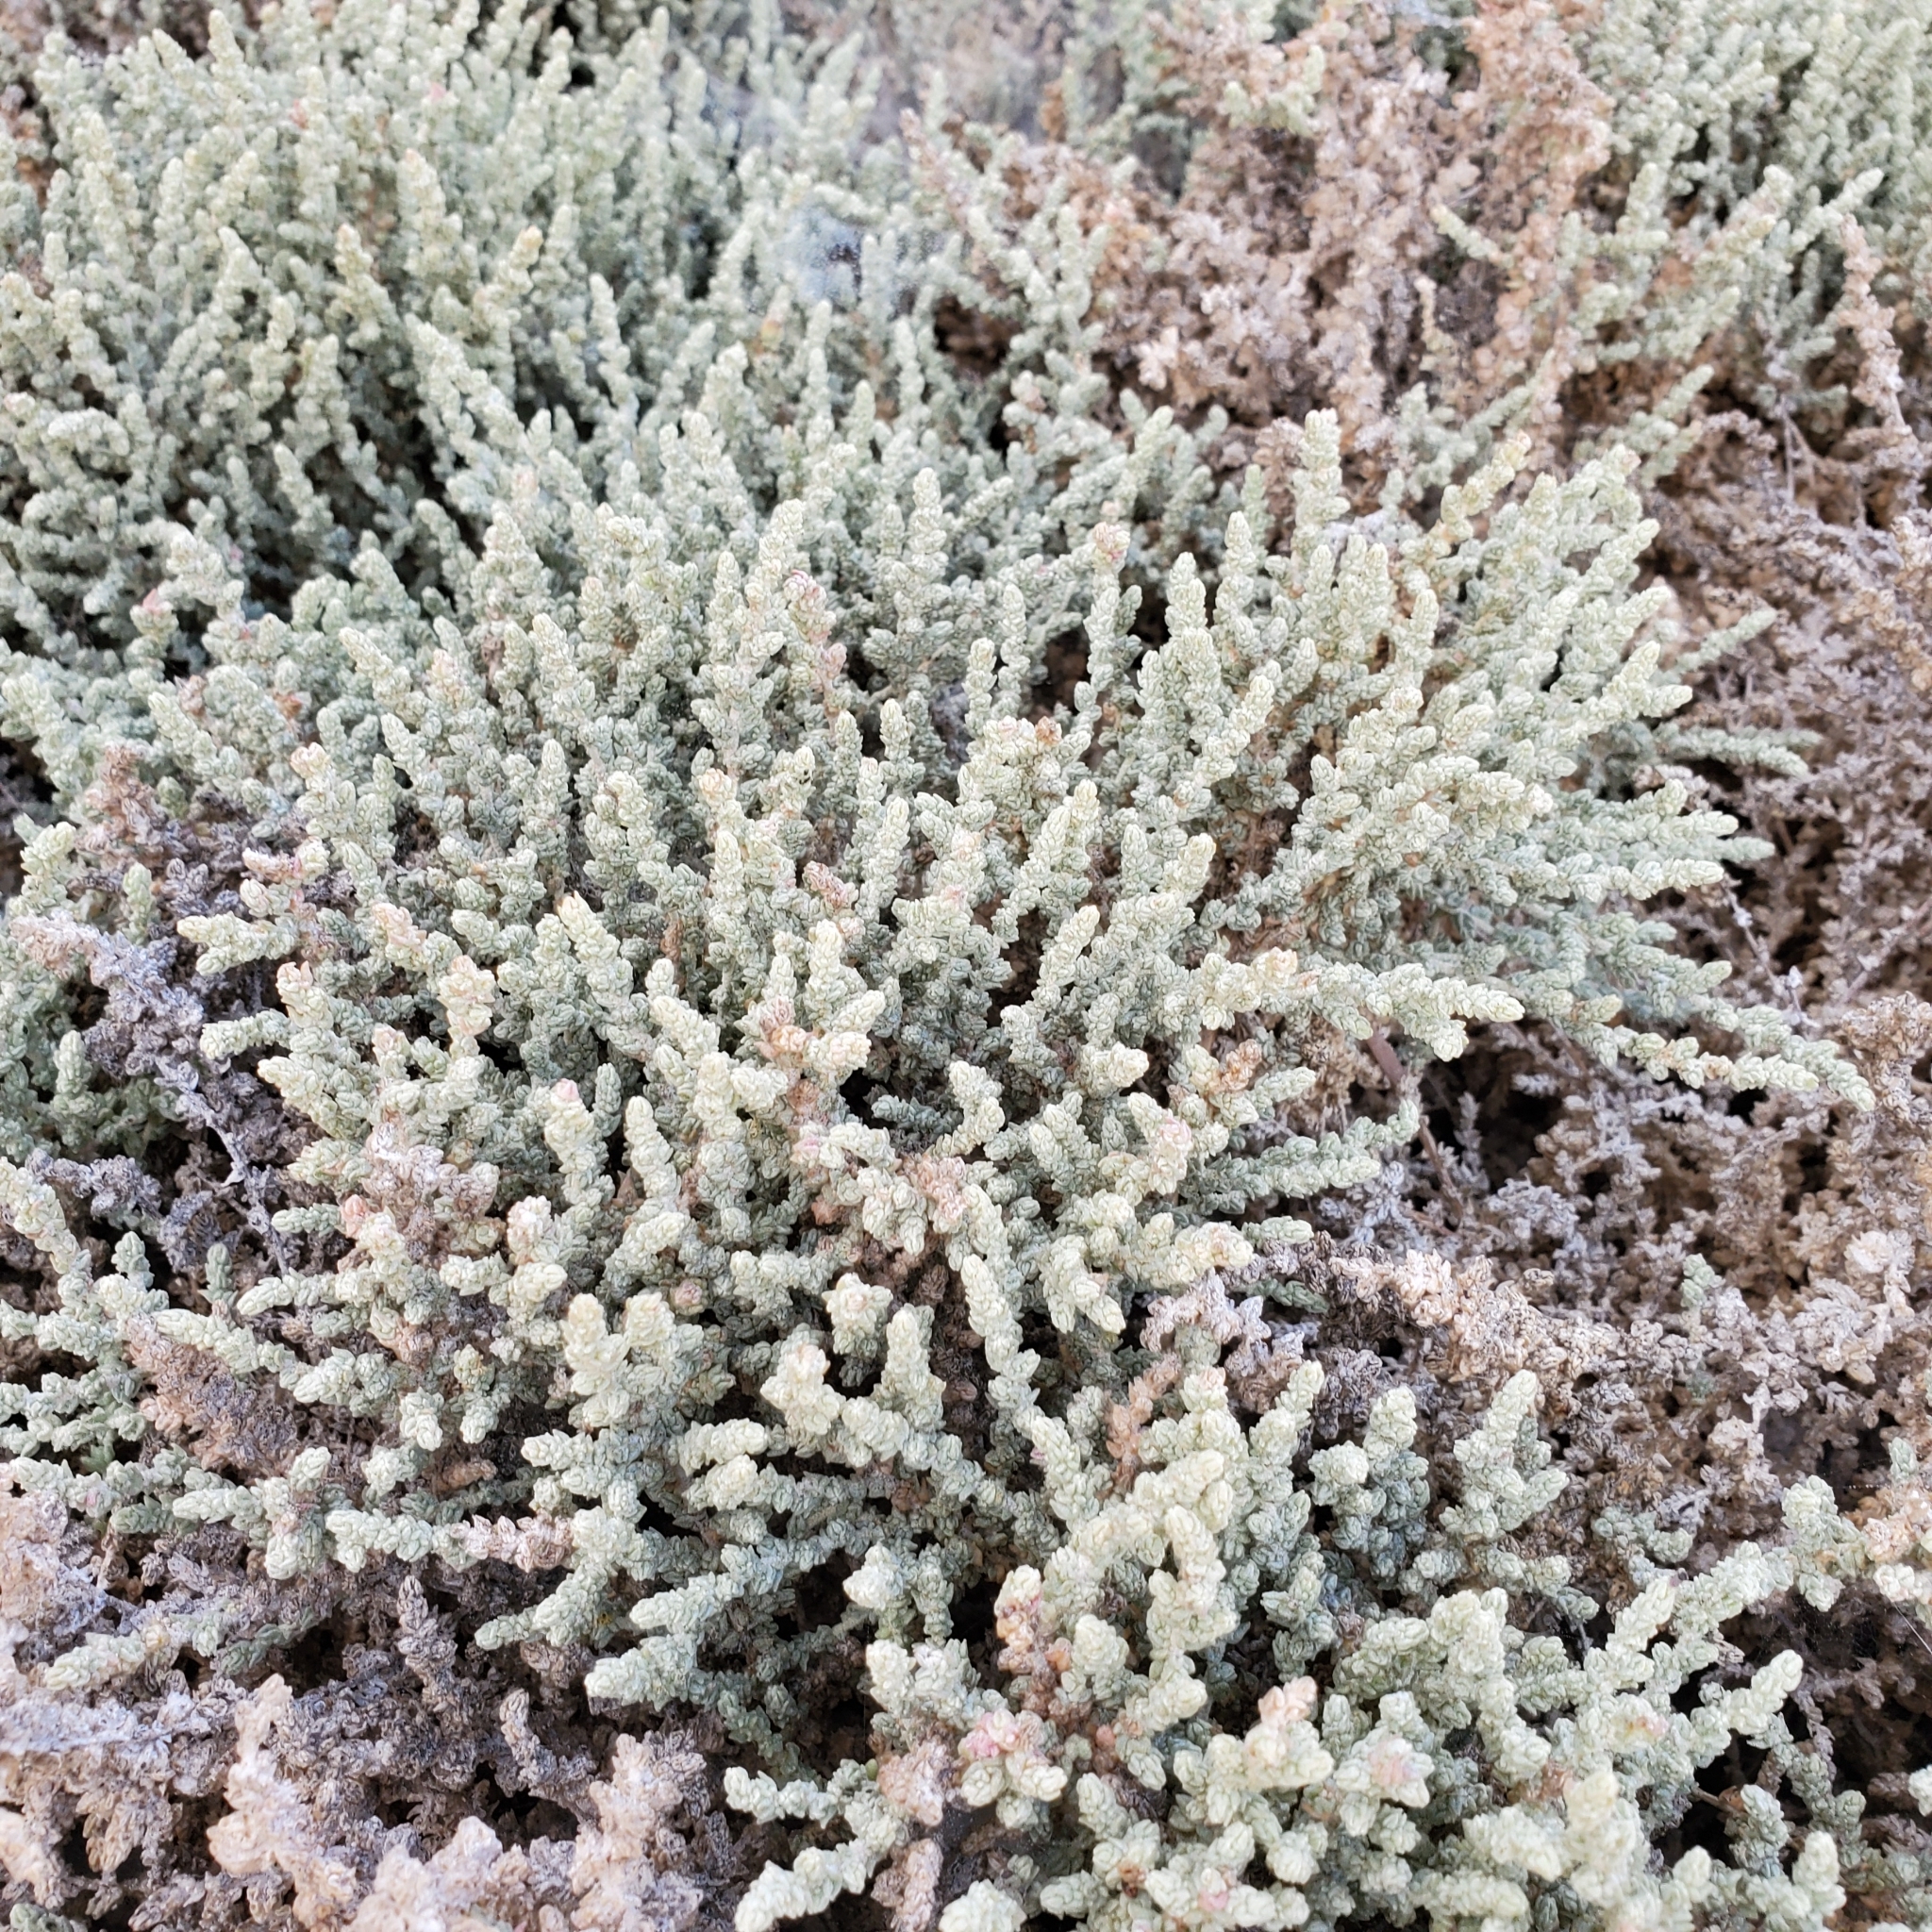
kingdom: Plantae
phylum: Tracheophyta
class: Magnoliopsida
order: Caryophyllales
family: Amaranthaceae
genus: Atriplex
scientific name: Atriplex julacea
